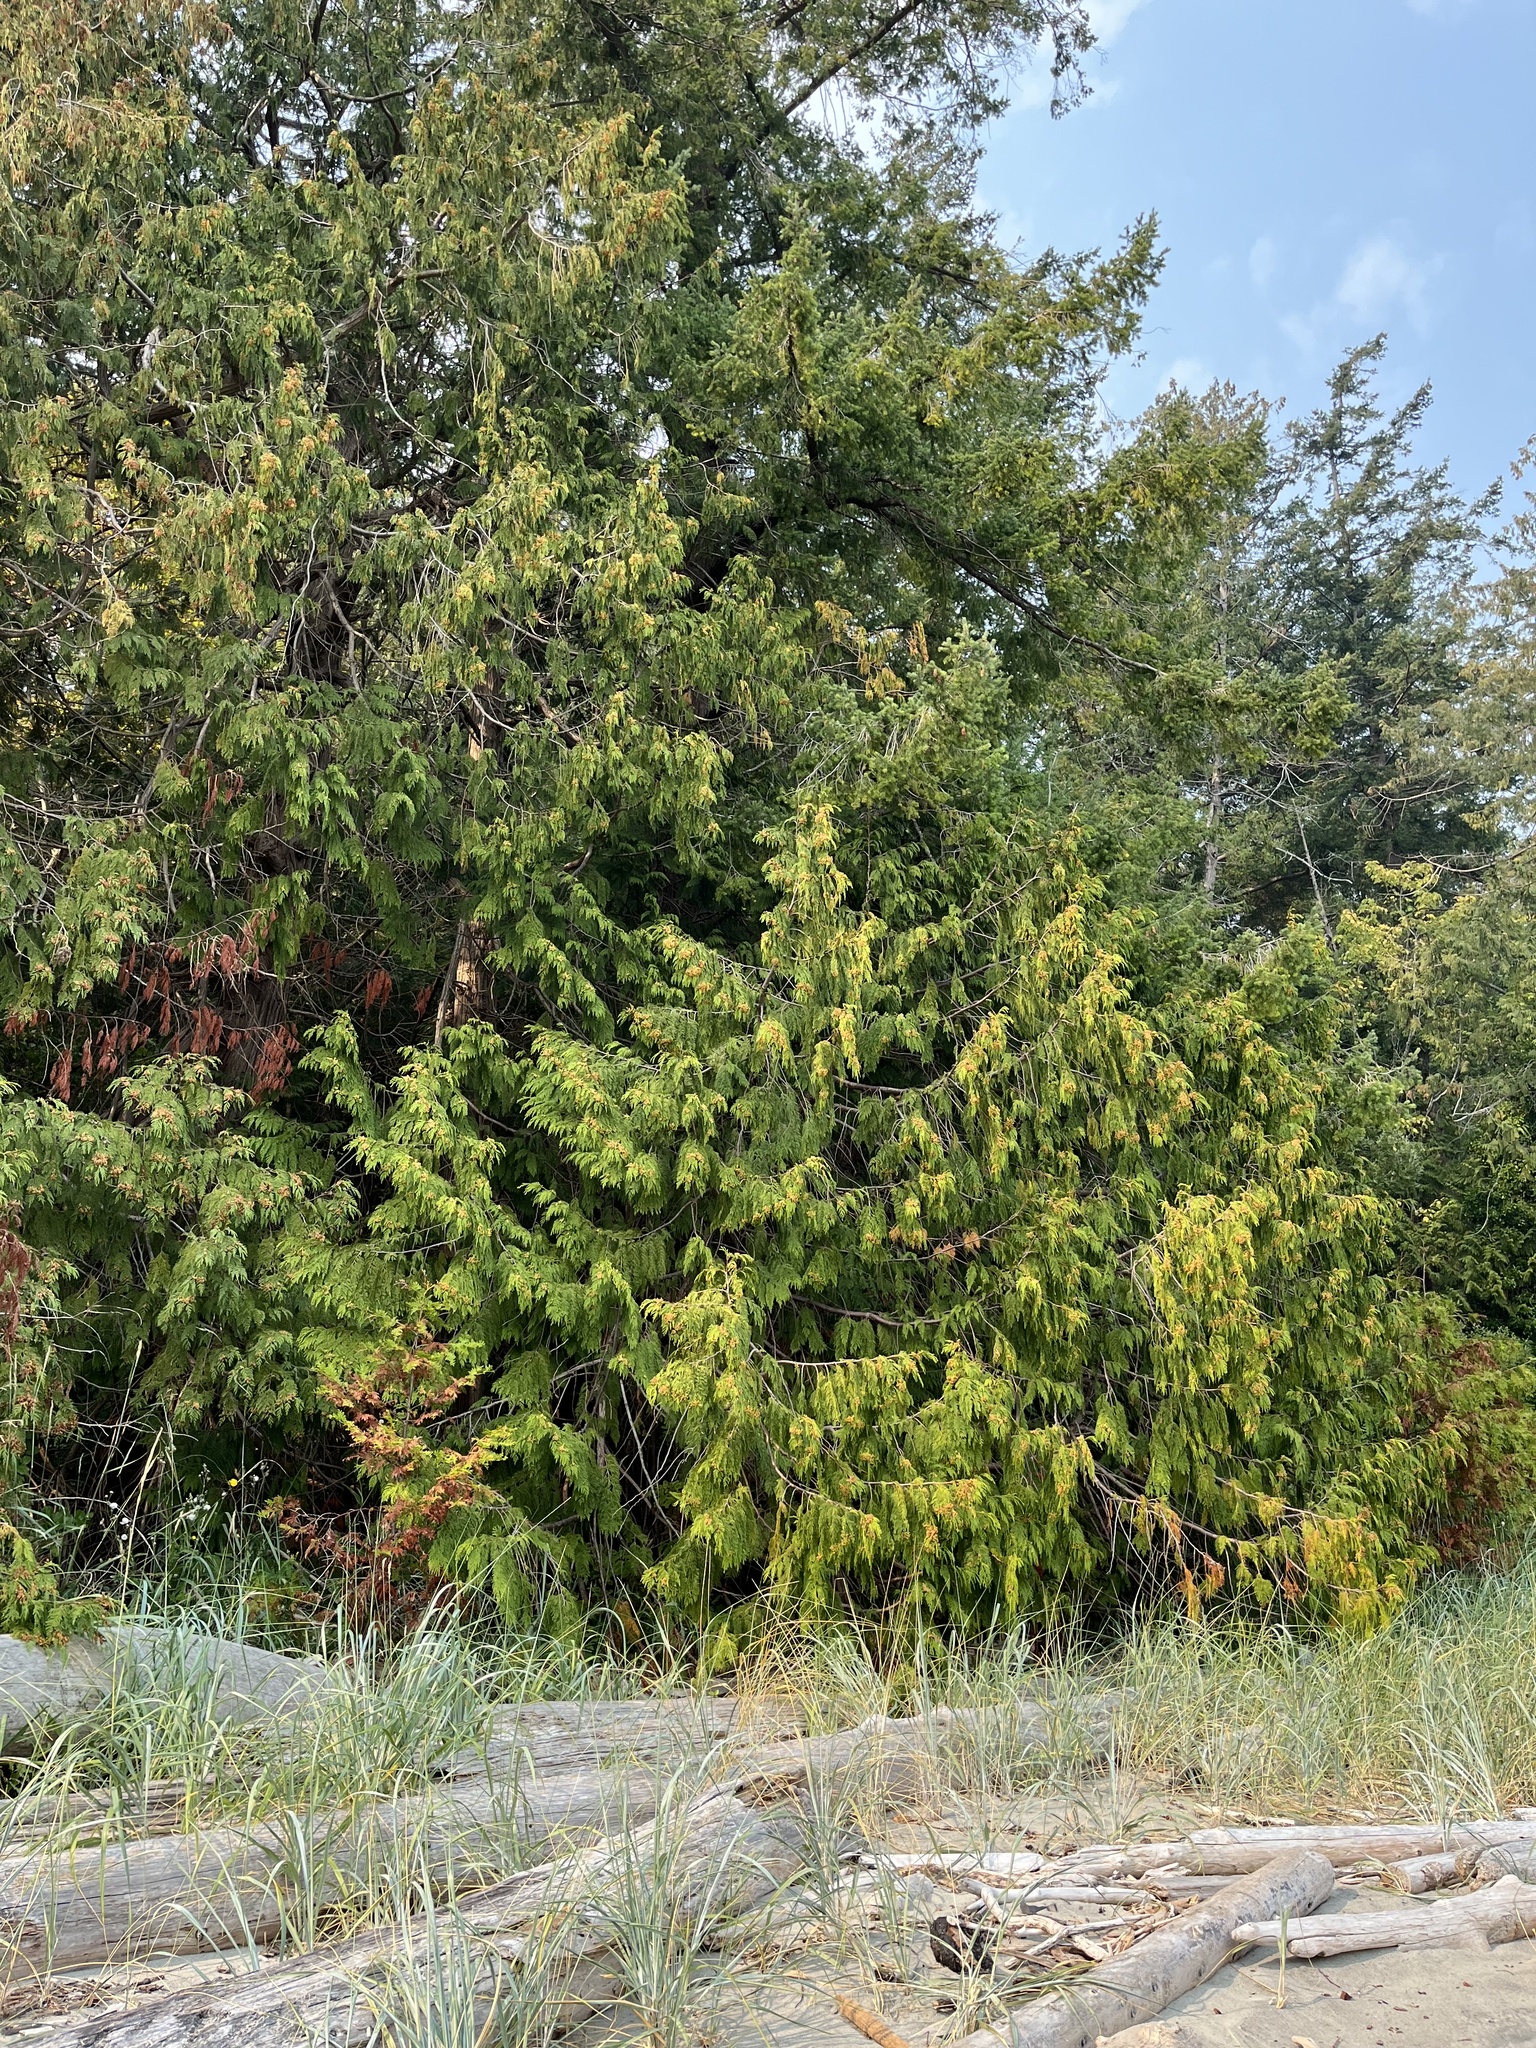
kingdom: Plantae
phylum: Tracheophyta
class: Pinopsida
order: Pinales
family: Cupressaceae
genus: Thuja
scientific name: Thuja plicata
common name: Western red-cedar
